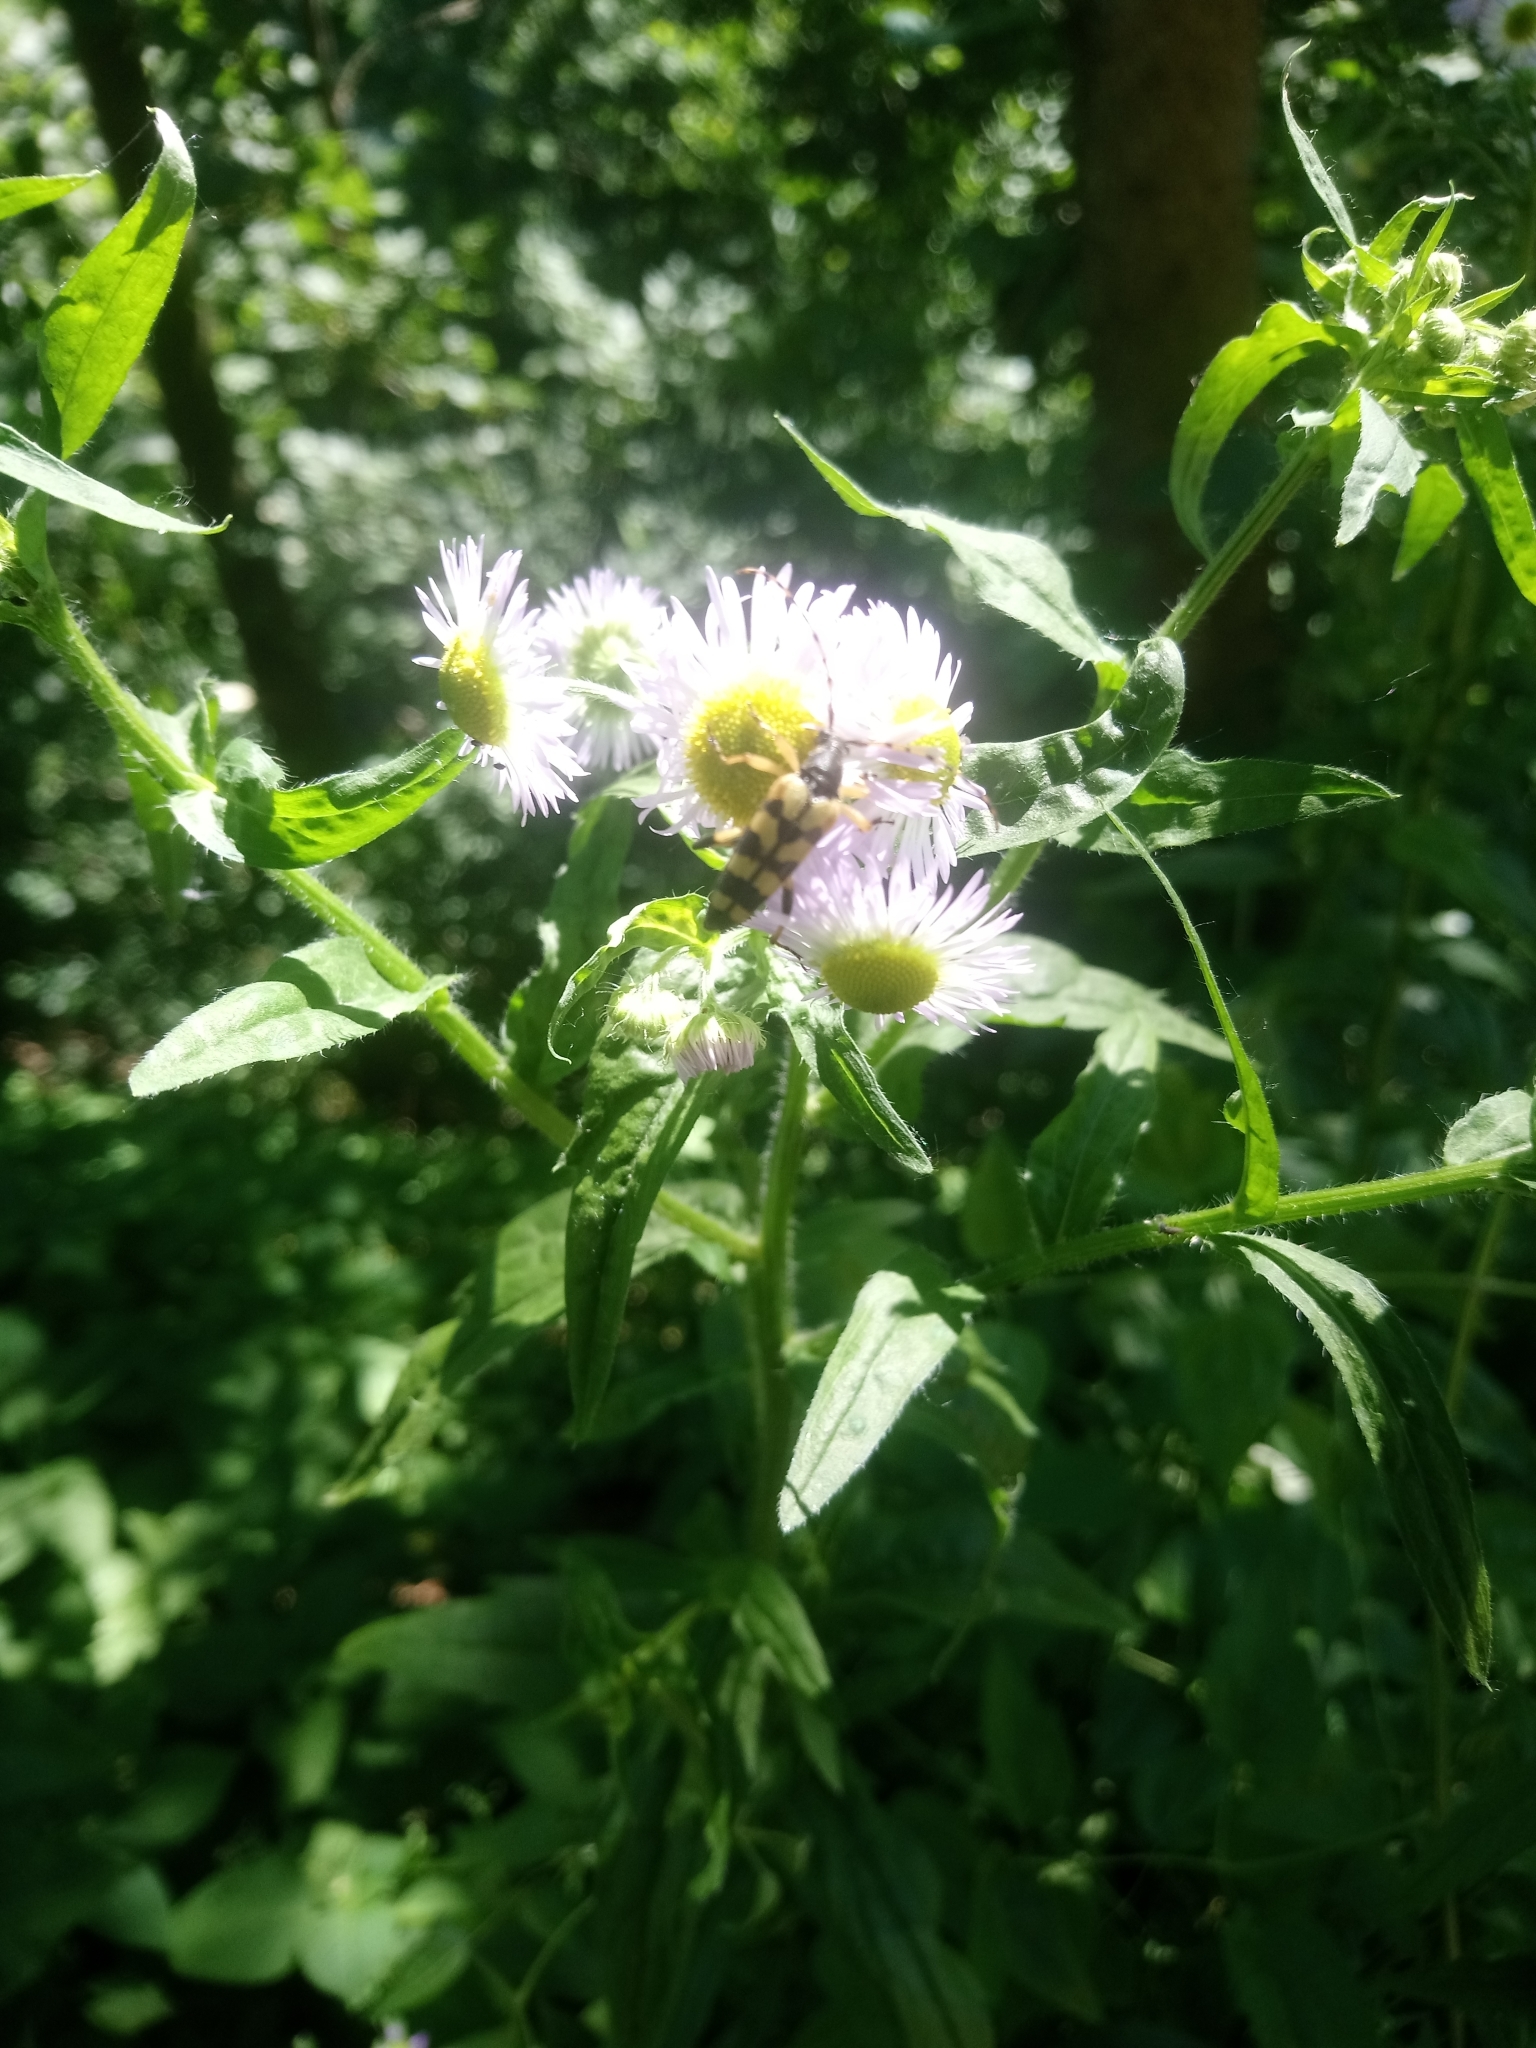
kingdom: Animalia
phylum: Arthropoda
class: Insecta
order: Coleoptera
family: Cerambycidae
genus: Rutpela
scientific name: Rutpela maculata
